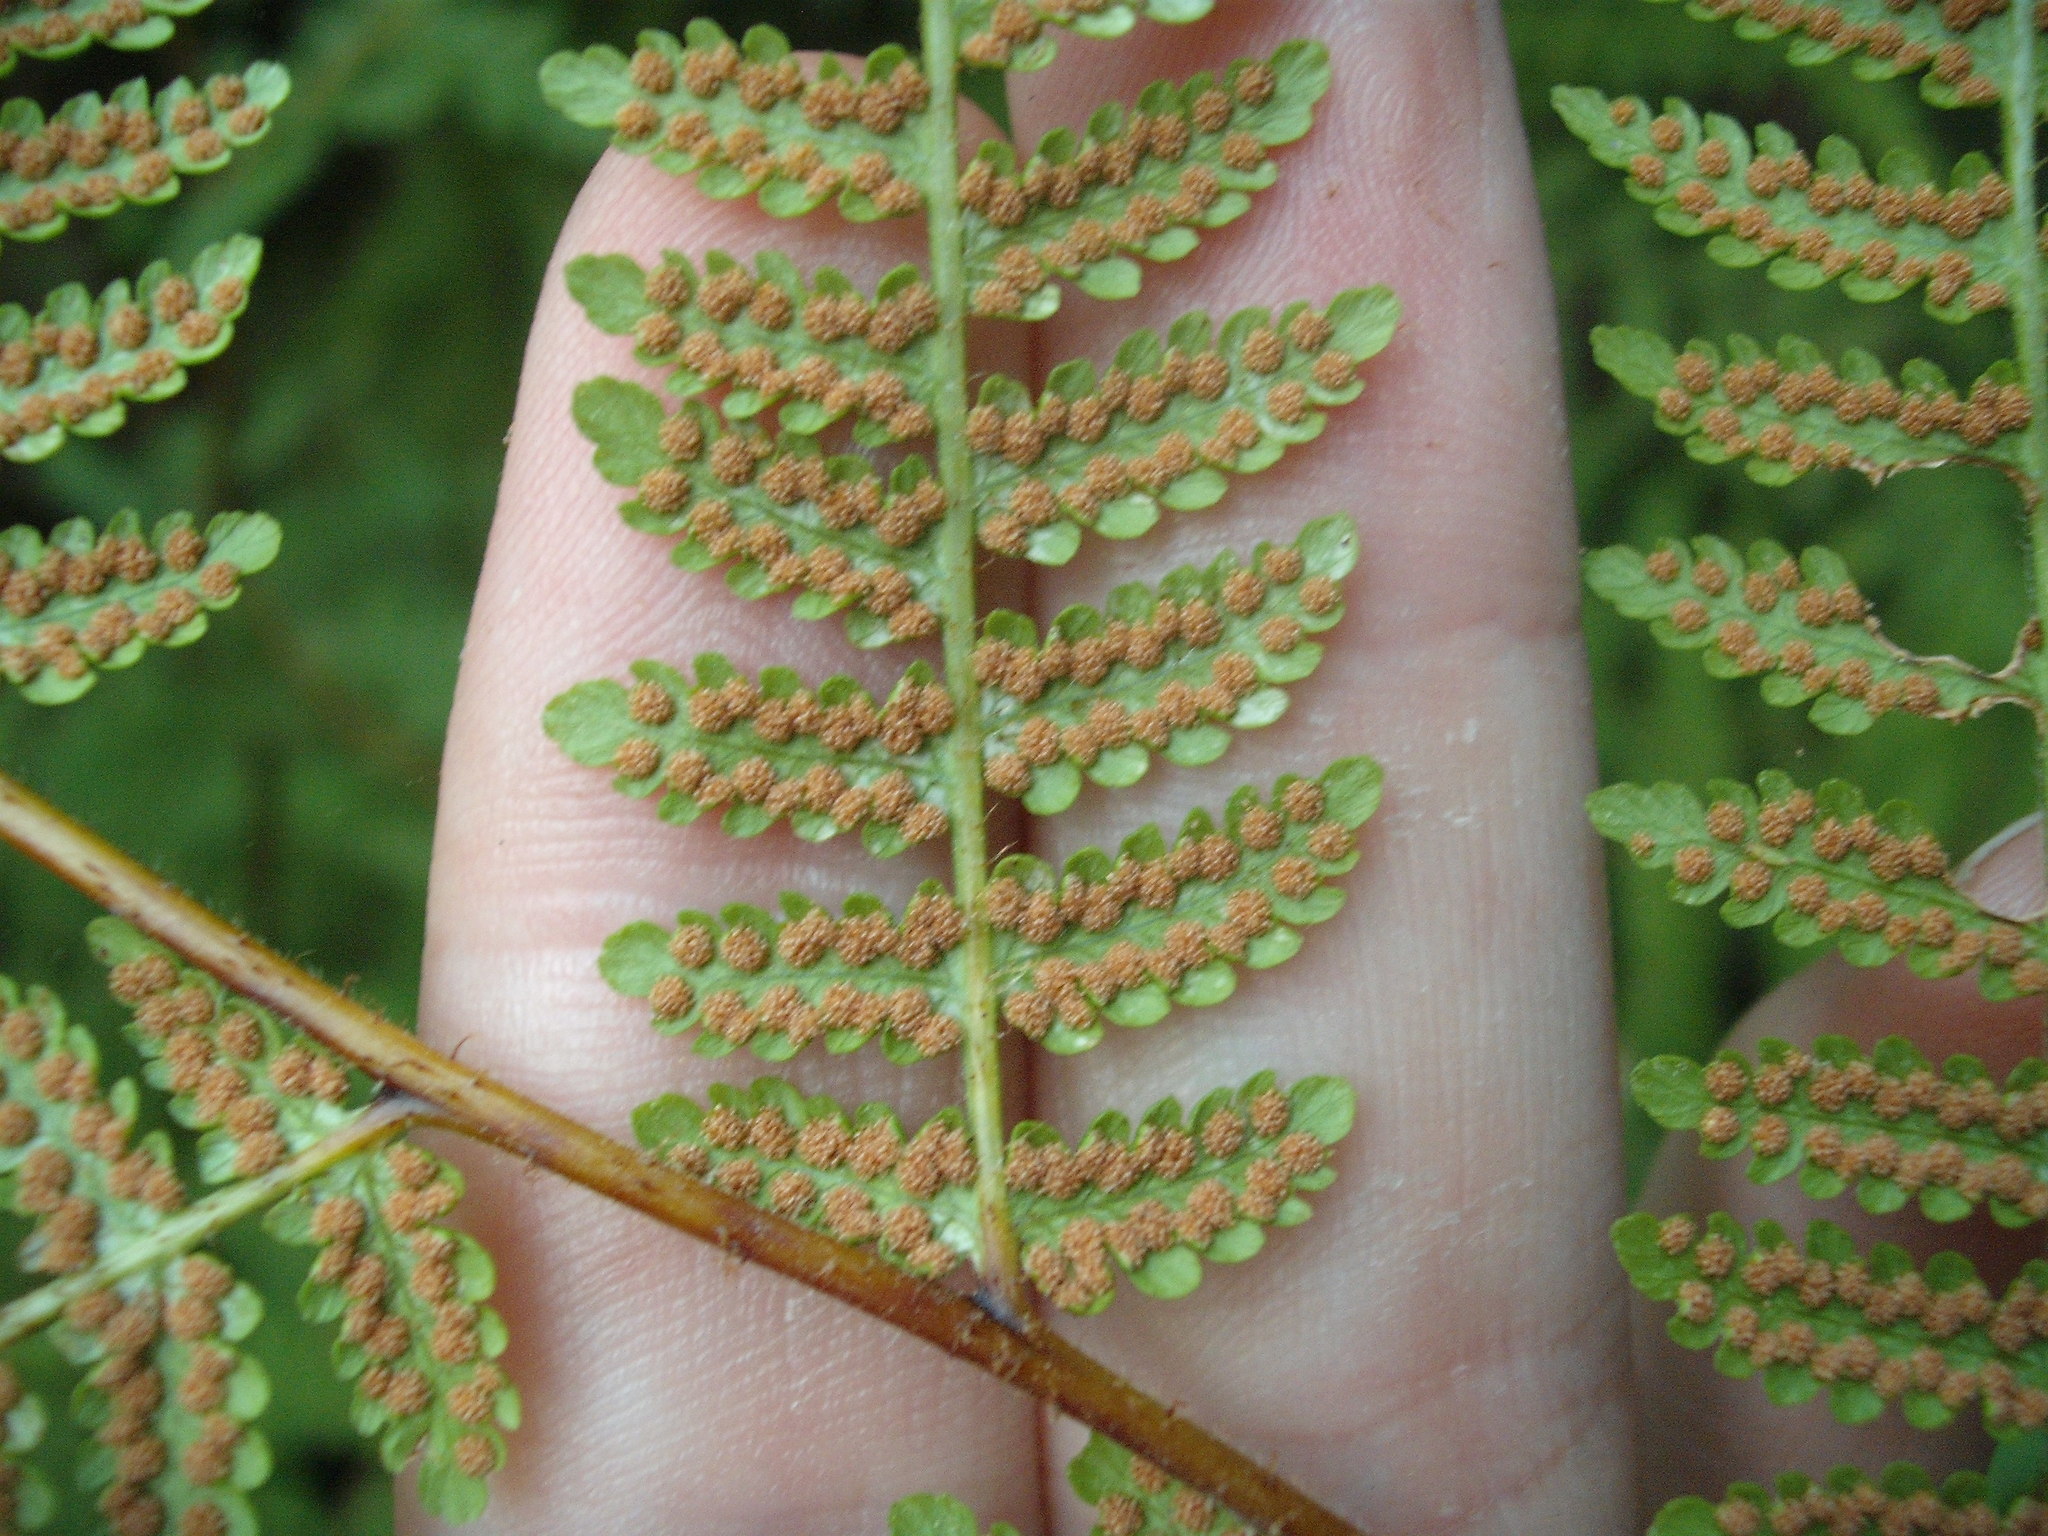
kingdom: Plantae
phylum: Tracheophyta
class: Polypodiopsida
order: Polypodiales
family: Dennstaedtiaceae
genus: Hypolepis
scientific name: Hypolepis ambigua
